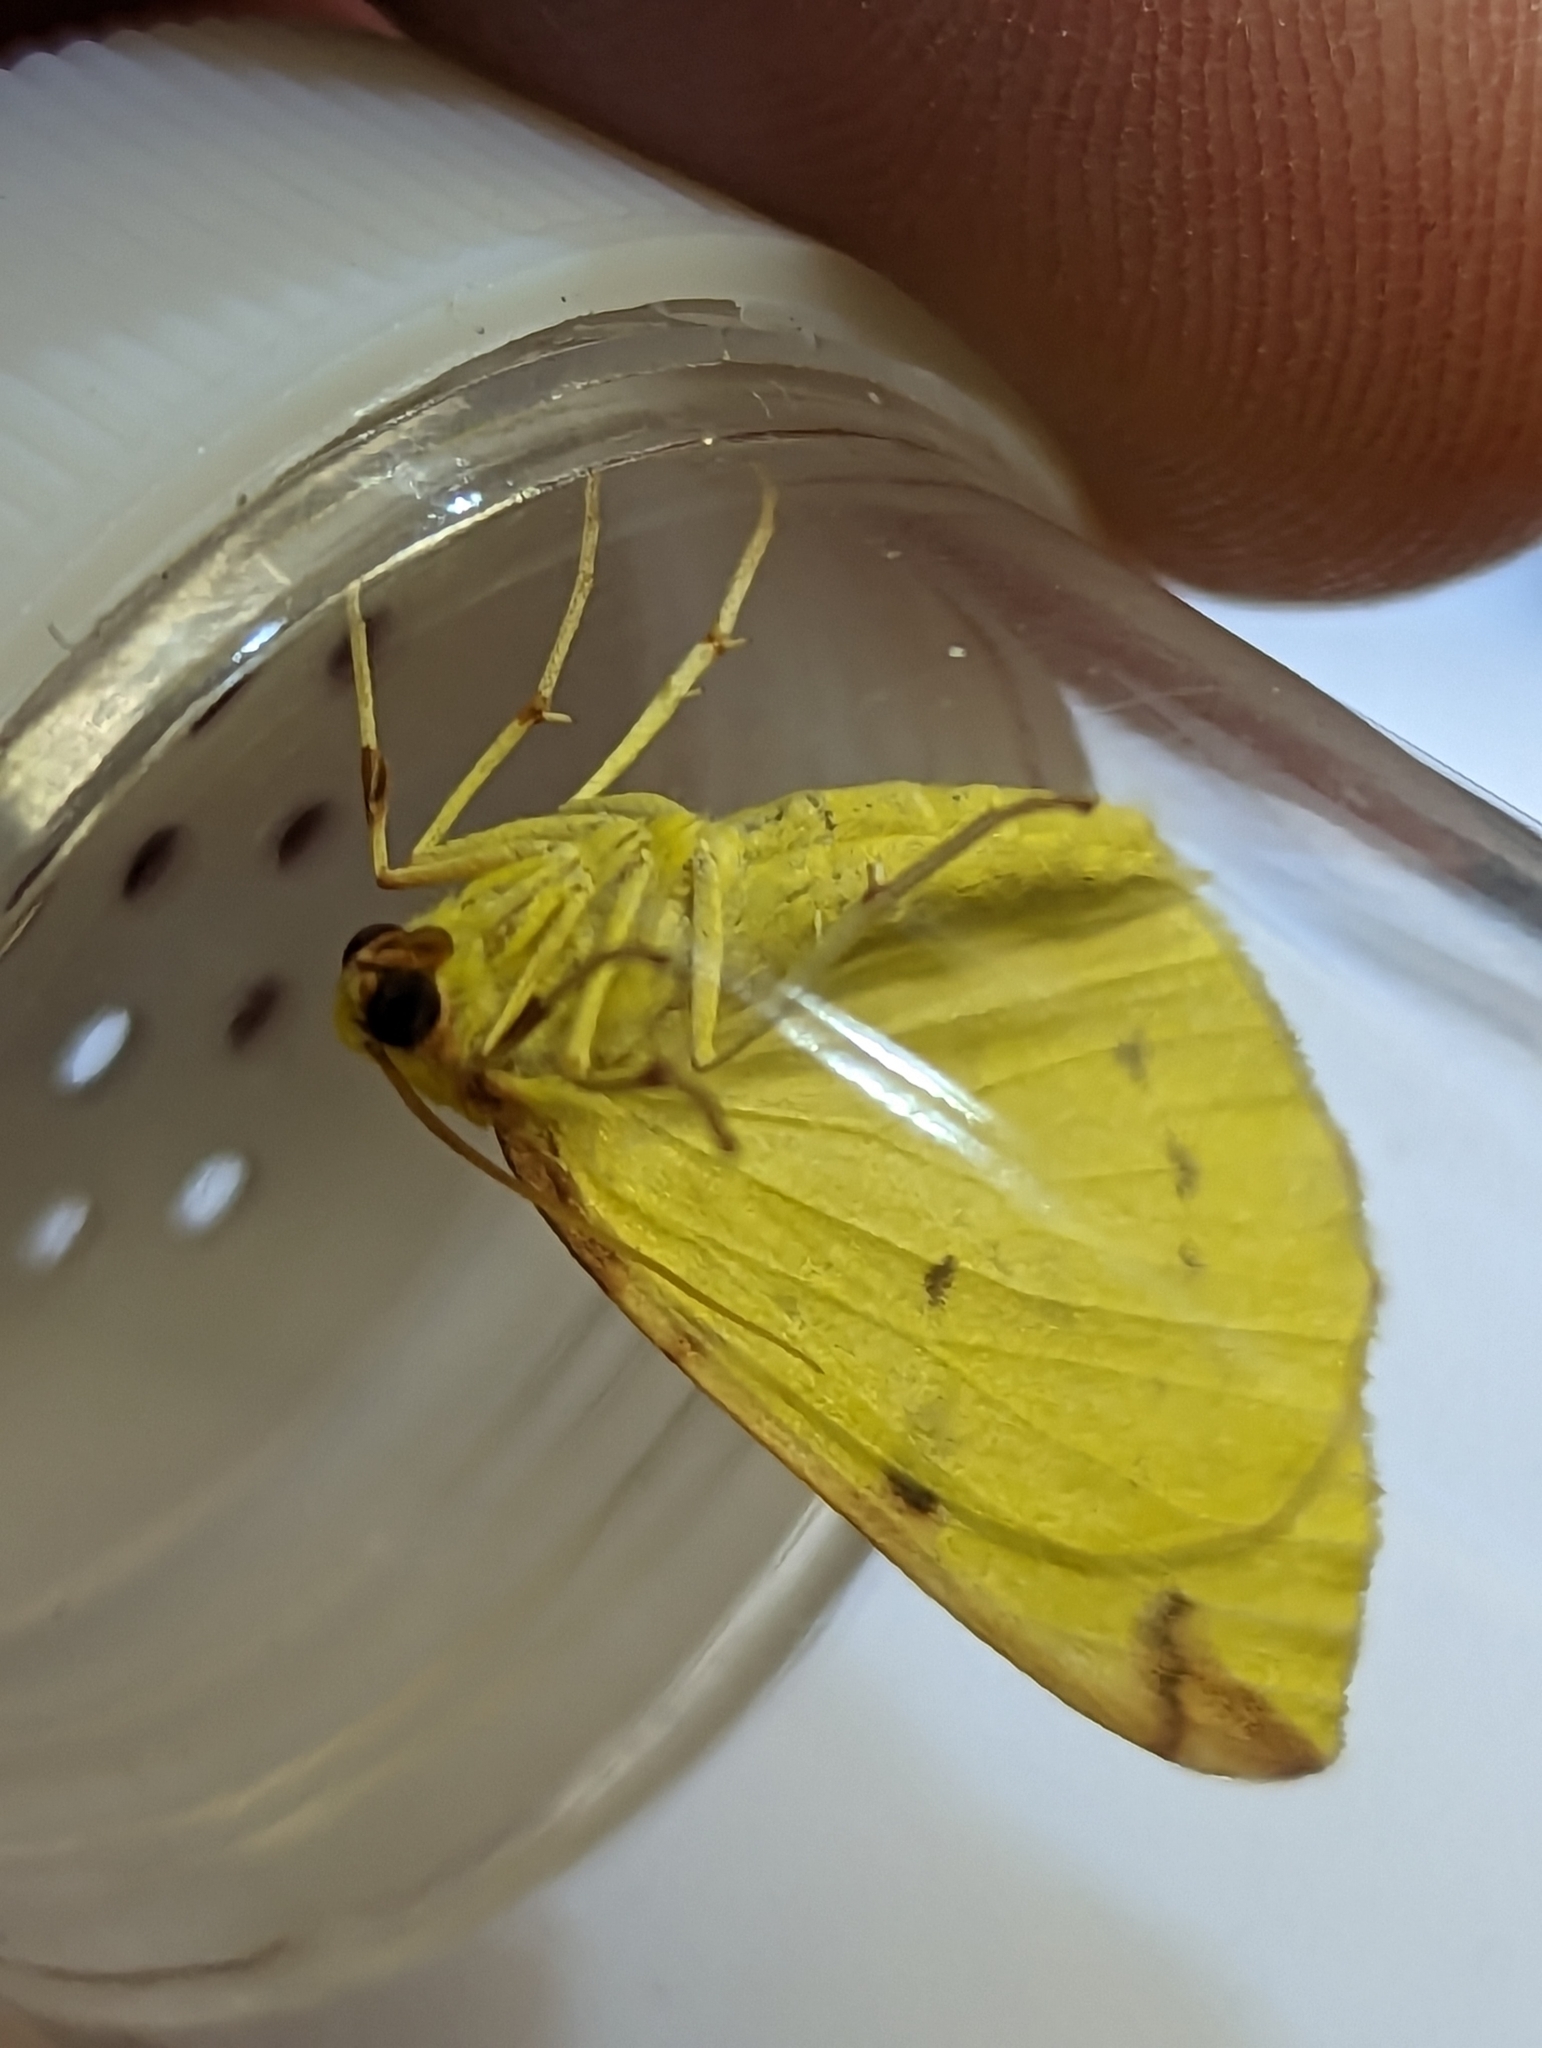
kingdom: Animalia
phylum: Arthropoda
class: Insecta
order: Lepidoptera
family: Geometridae
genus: Opisthograptis
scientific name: Opisthograptis luteolata
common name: Brimstone moth
